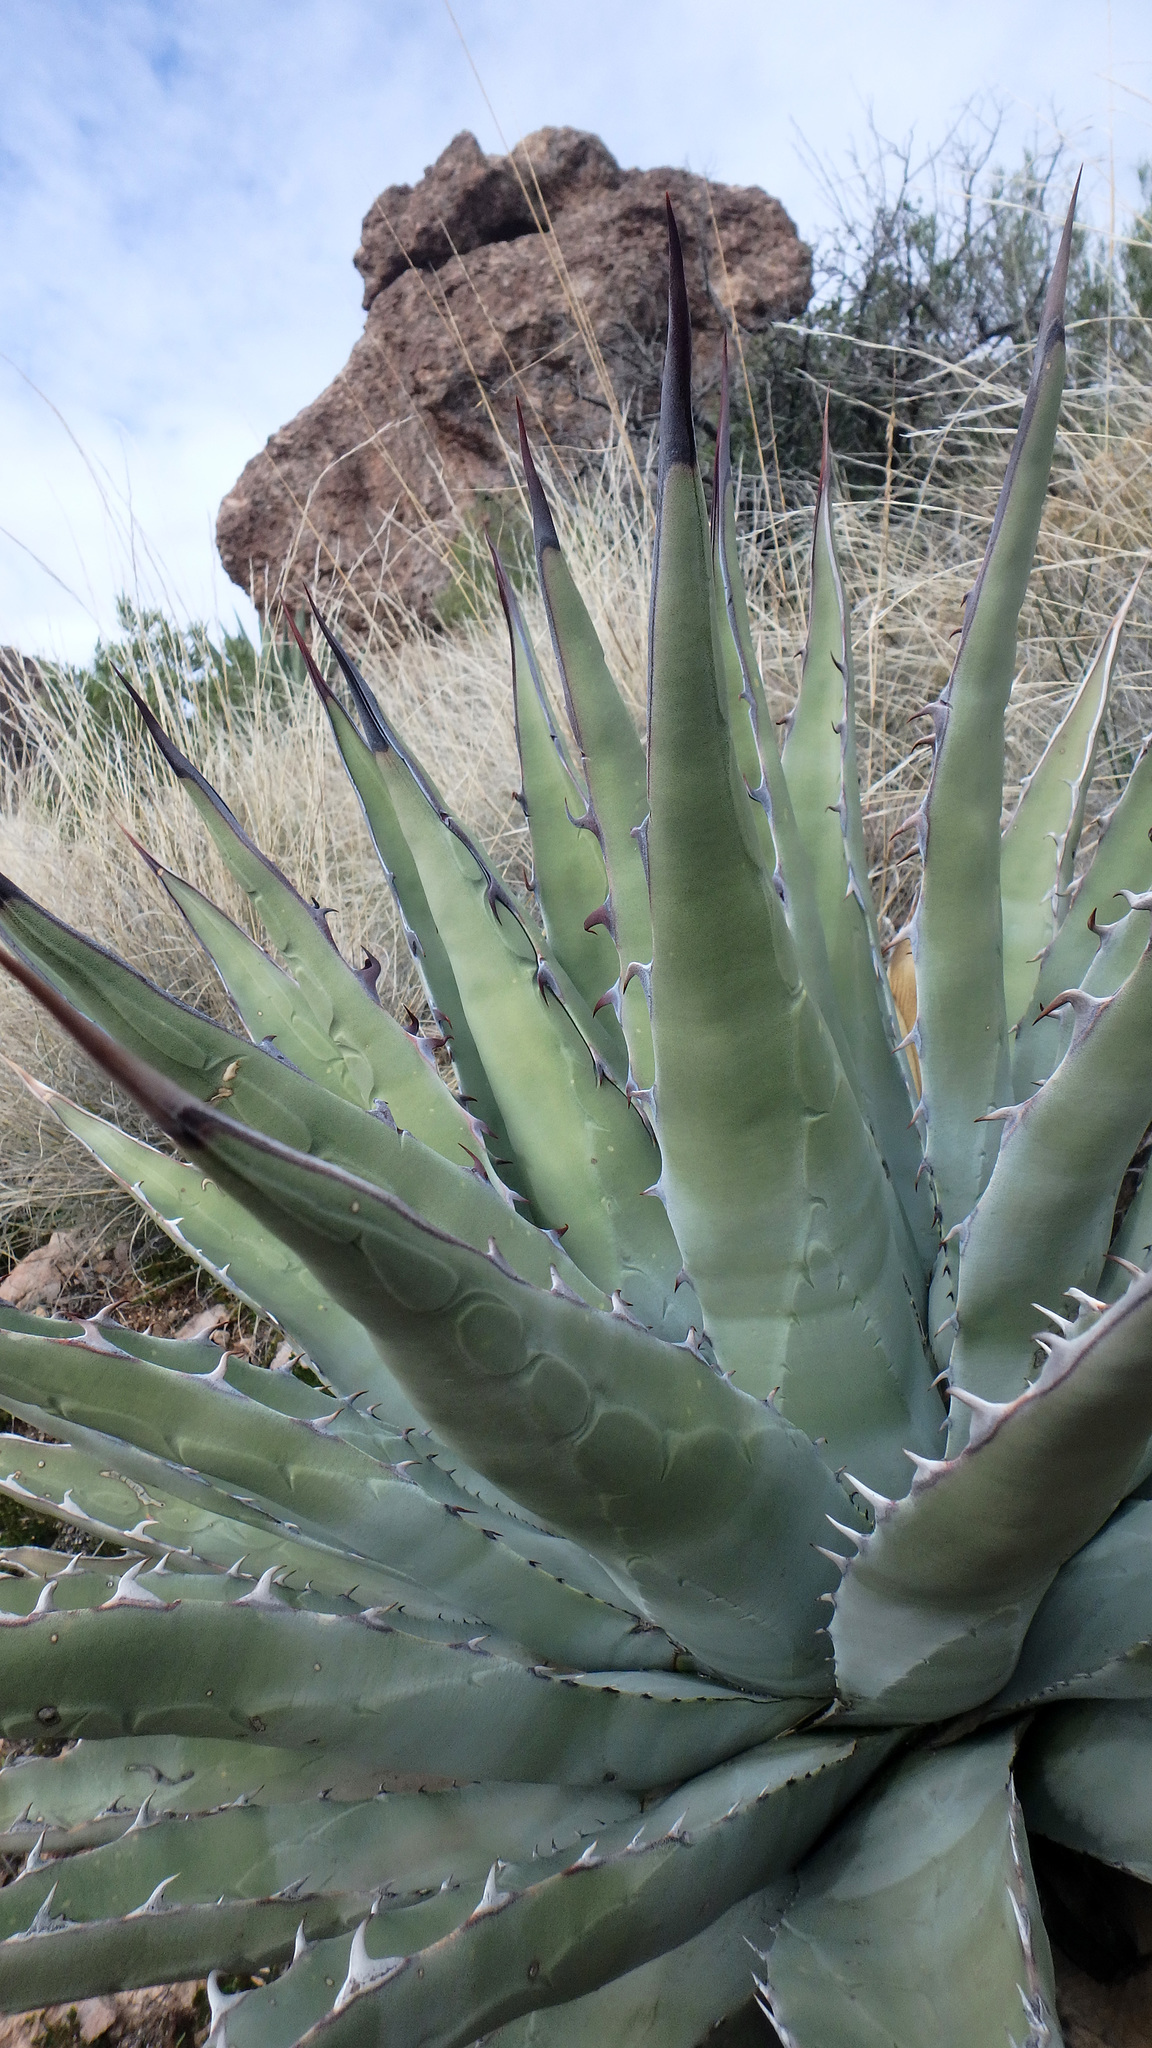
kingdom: Plantae
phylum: Tracheophyta
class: Liliopsida
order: Asparagales
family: Asparagaceae
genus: Agave
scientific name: Agave chrysantha
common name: Golden-flowered agave
